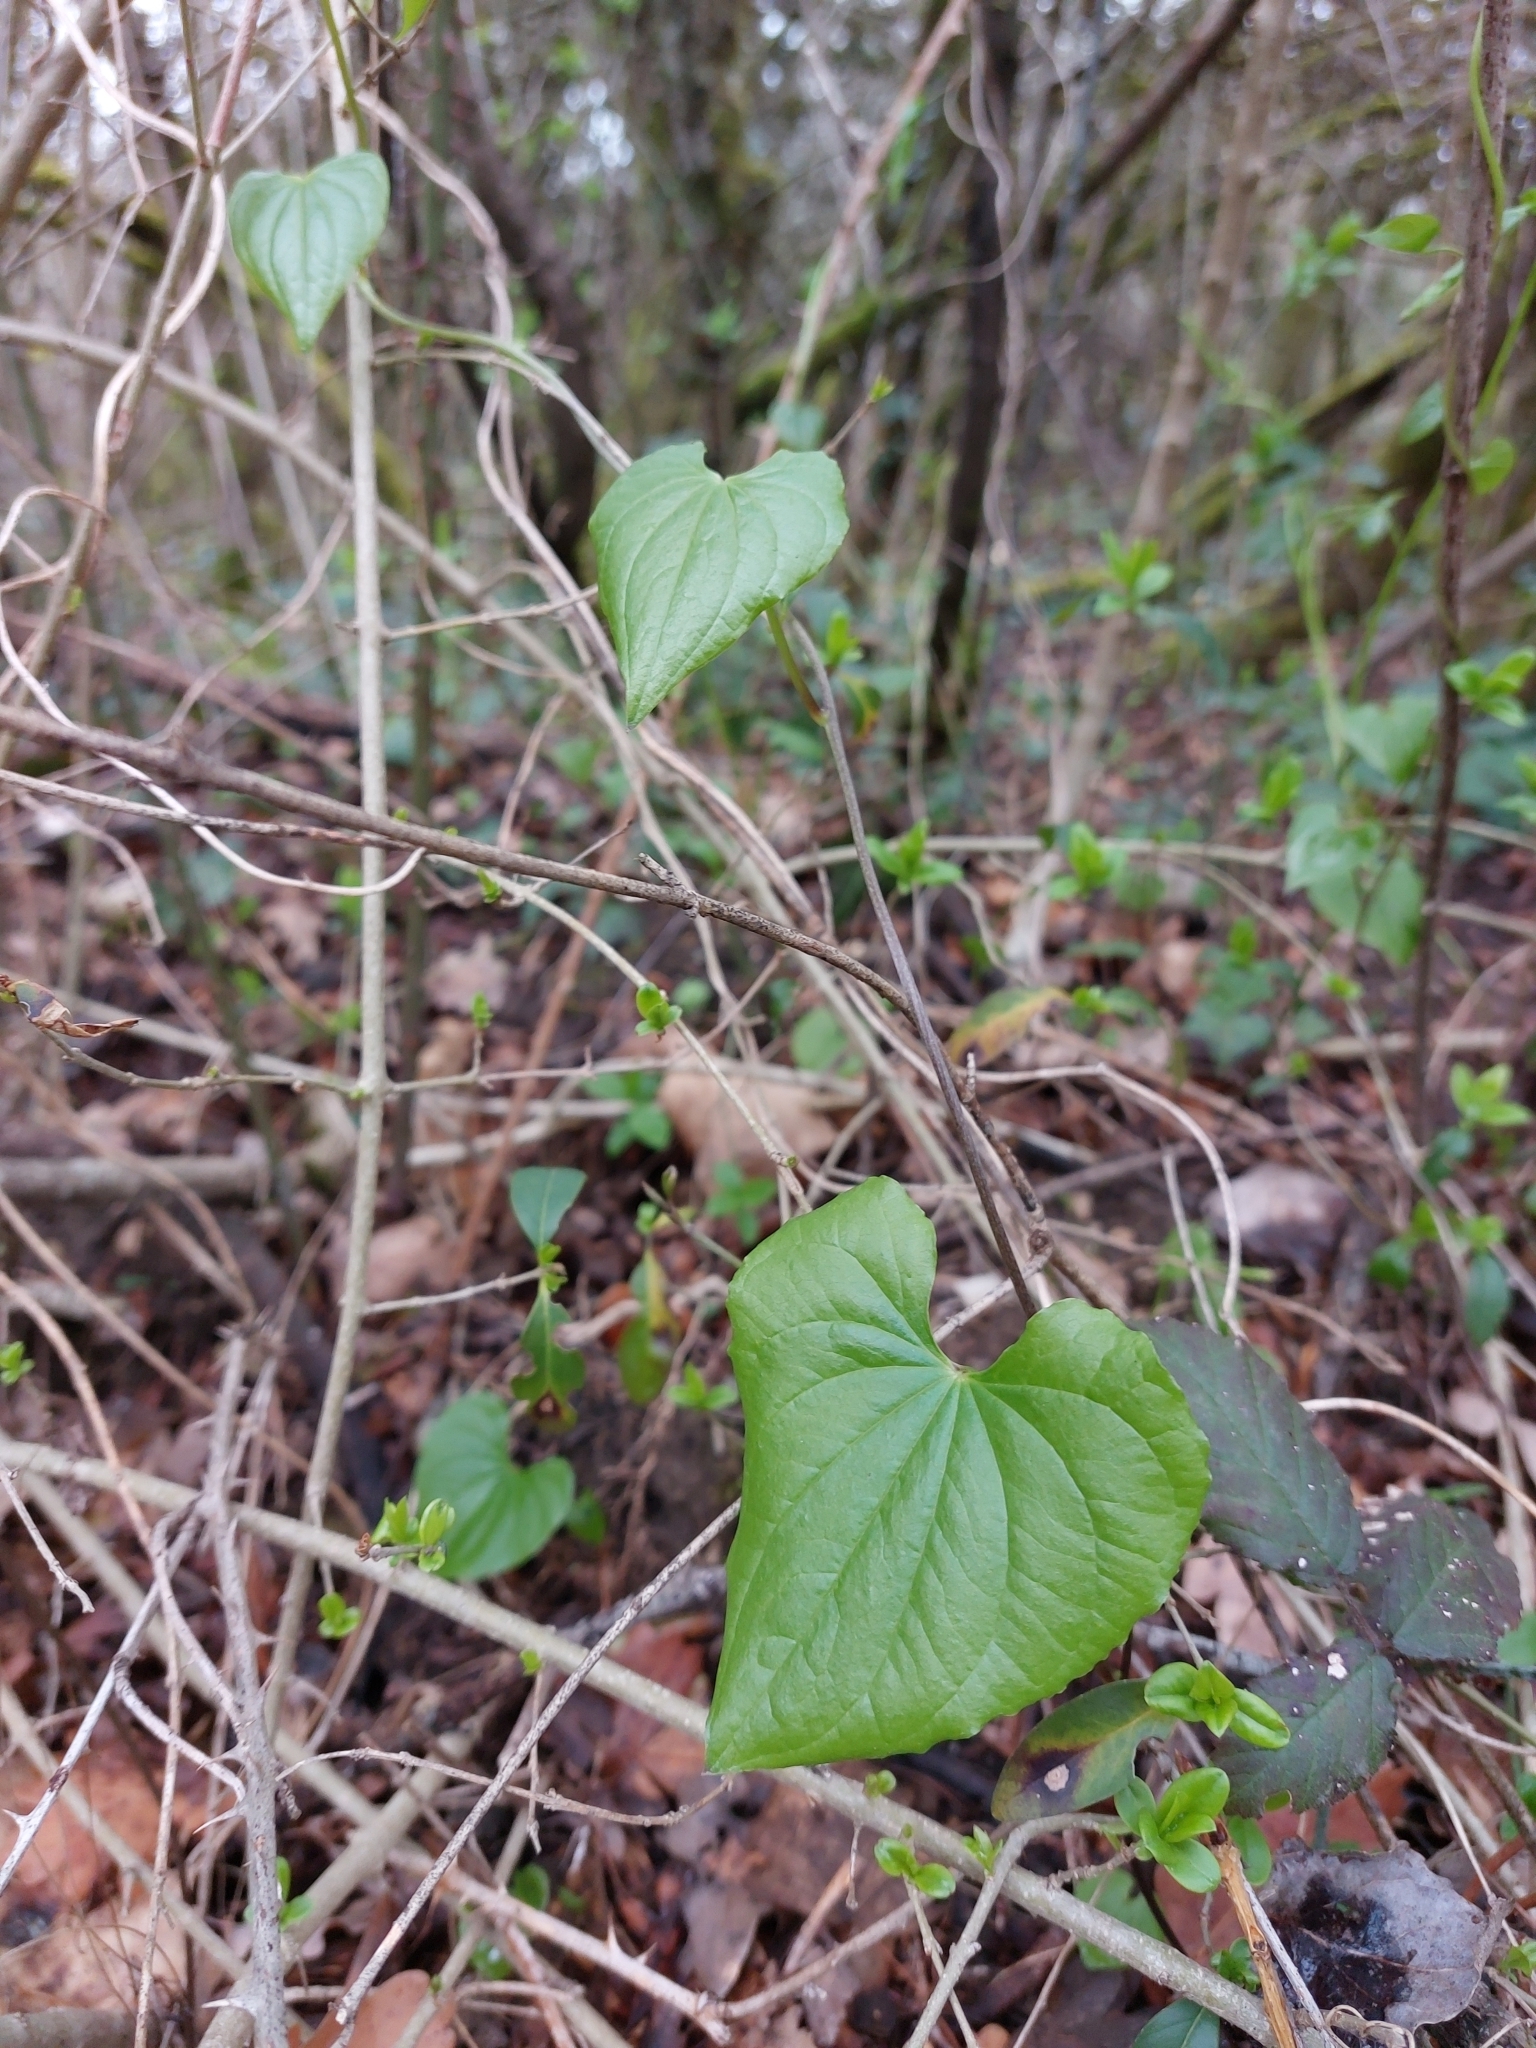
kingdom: Plantae
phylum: Tracheophyta
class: Liliopsida
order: Dioscoreales
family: Dioscoreaceae
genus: Dioscorea
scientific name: Dioscorea communis
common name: Black-bindweed
